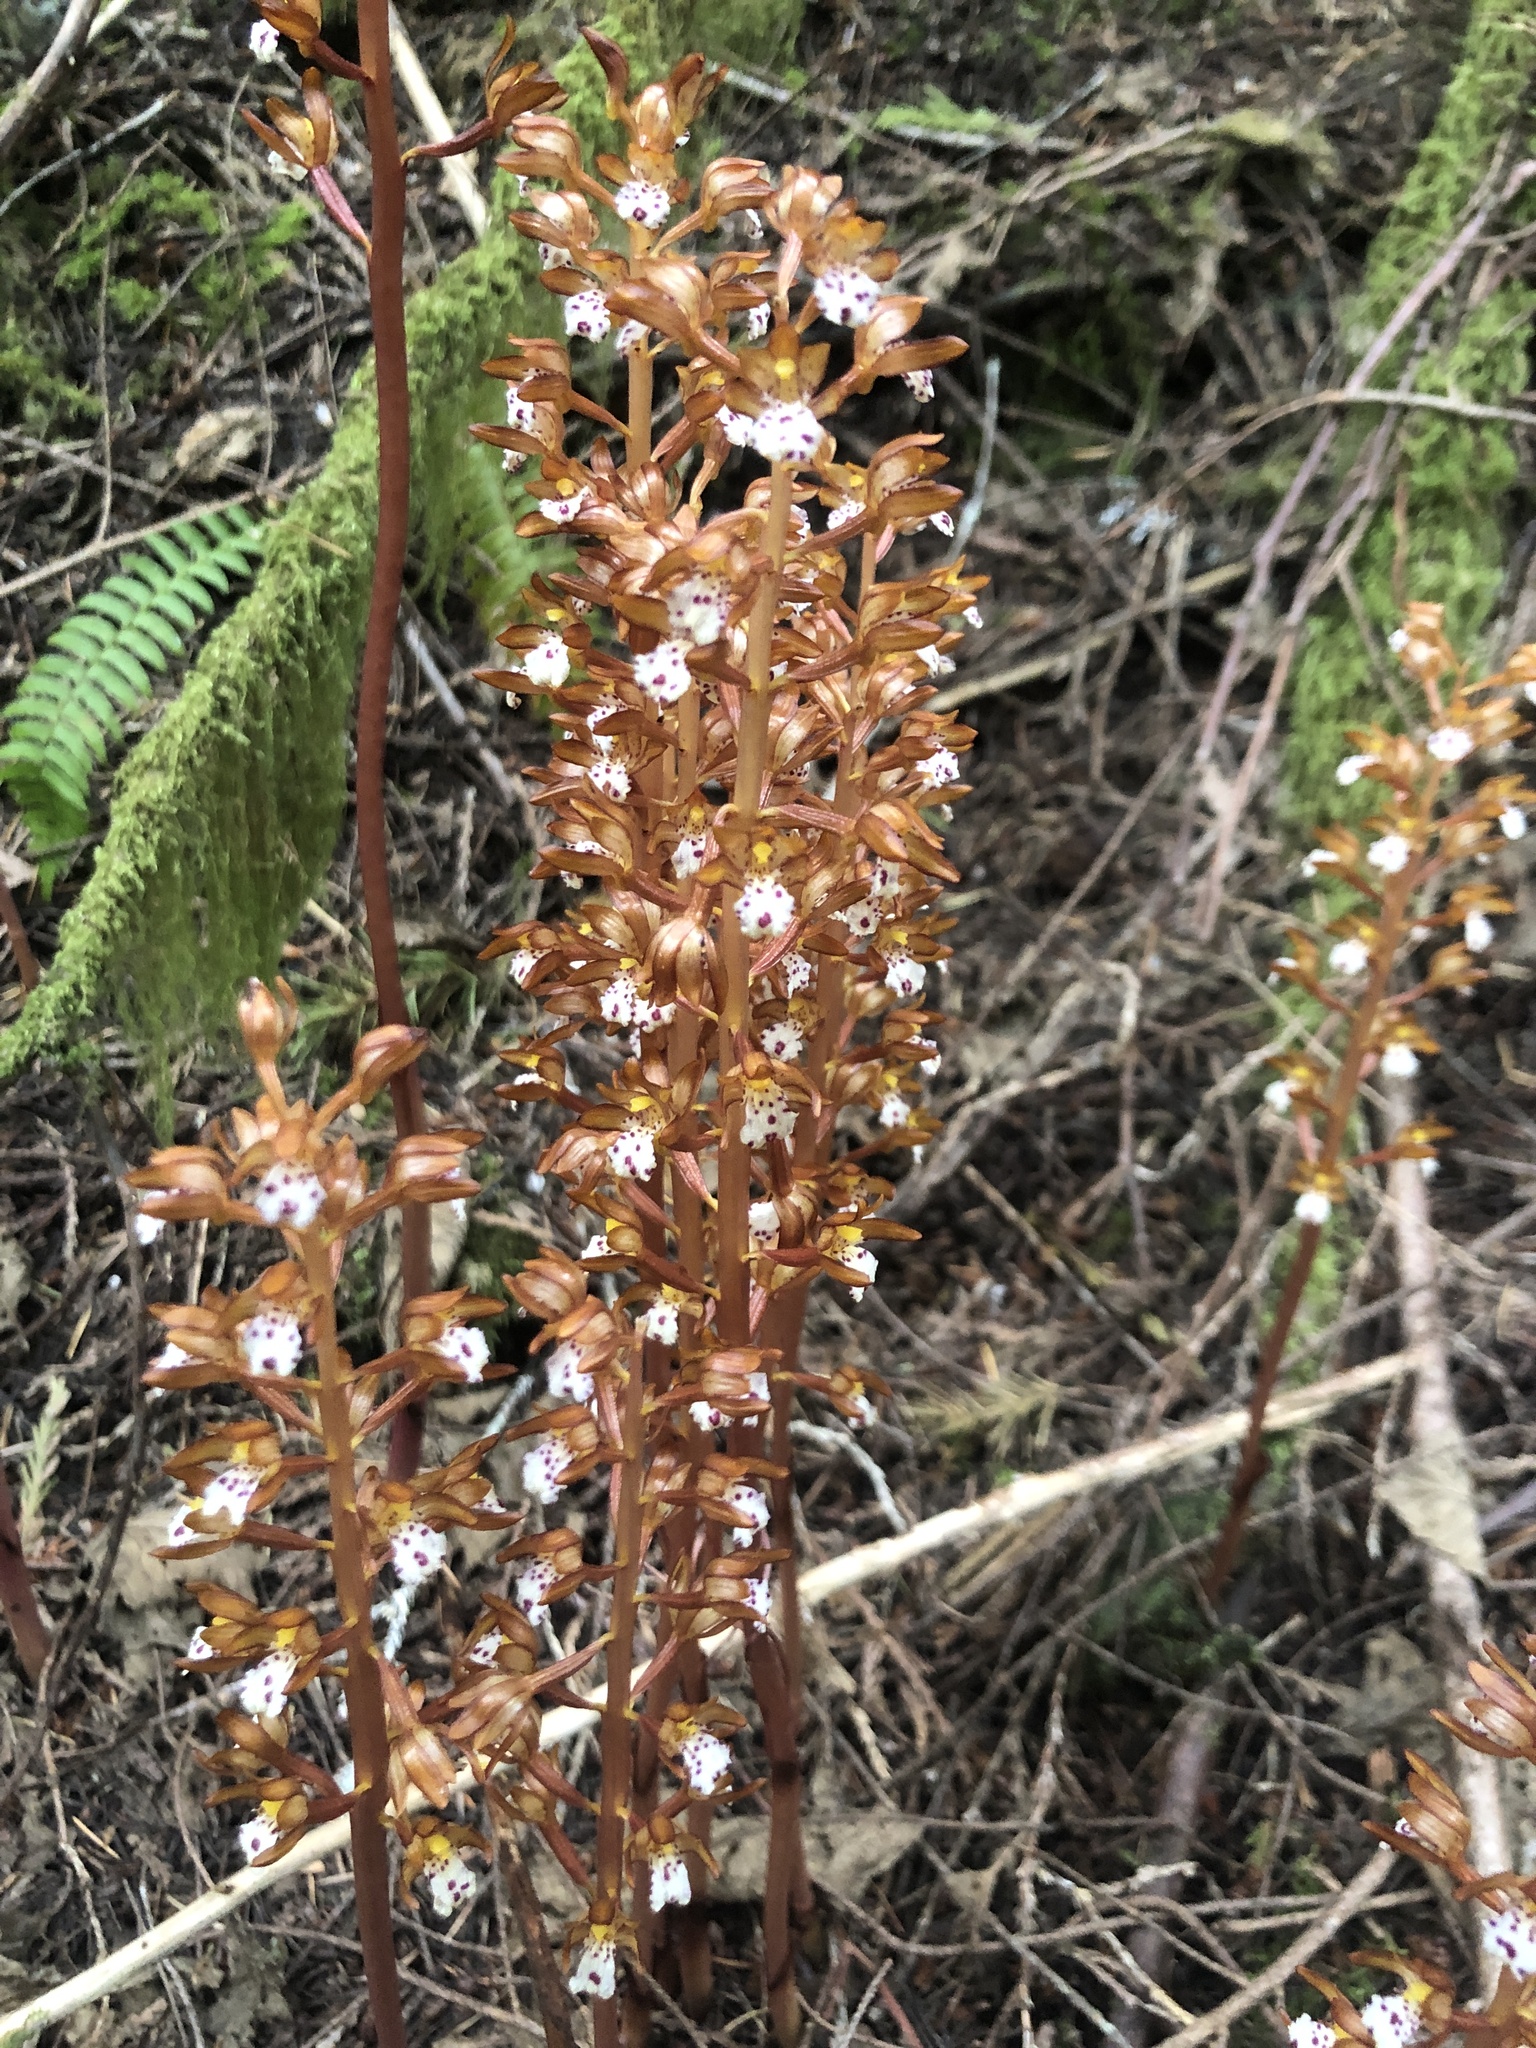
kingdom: Plantae
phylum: Tracheophyta
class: Liliopsida
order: Asparagales
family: Orchidaceae
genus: Corallorhiza
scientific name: Corallorhiza maculata
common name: Spotted coralroot
